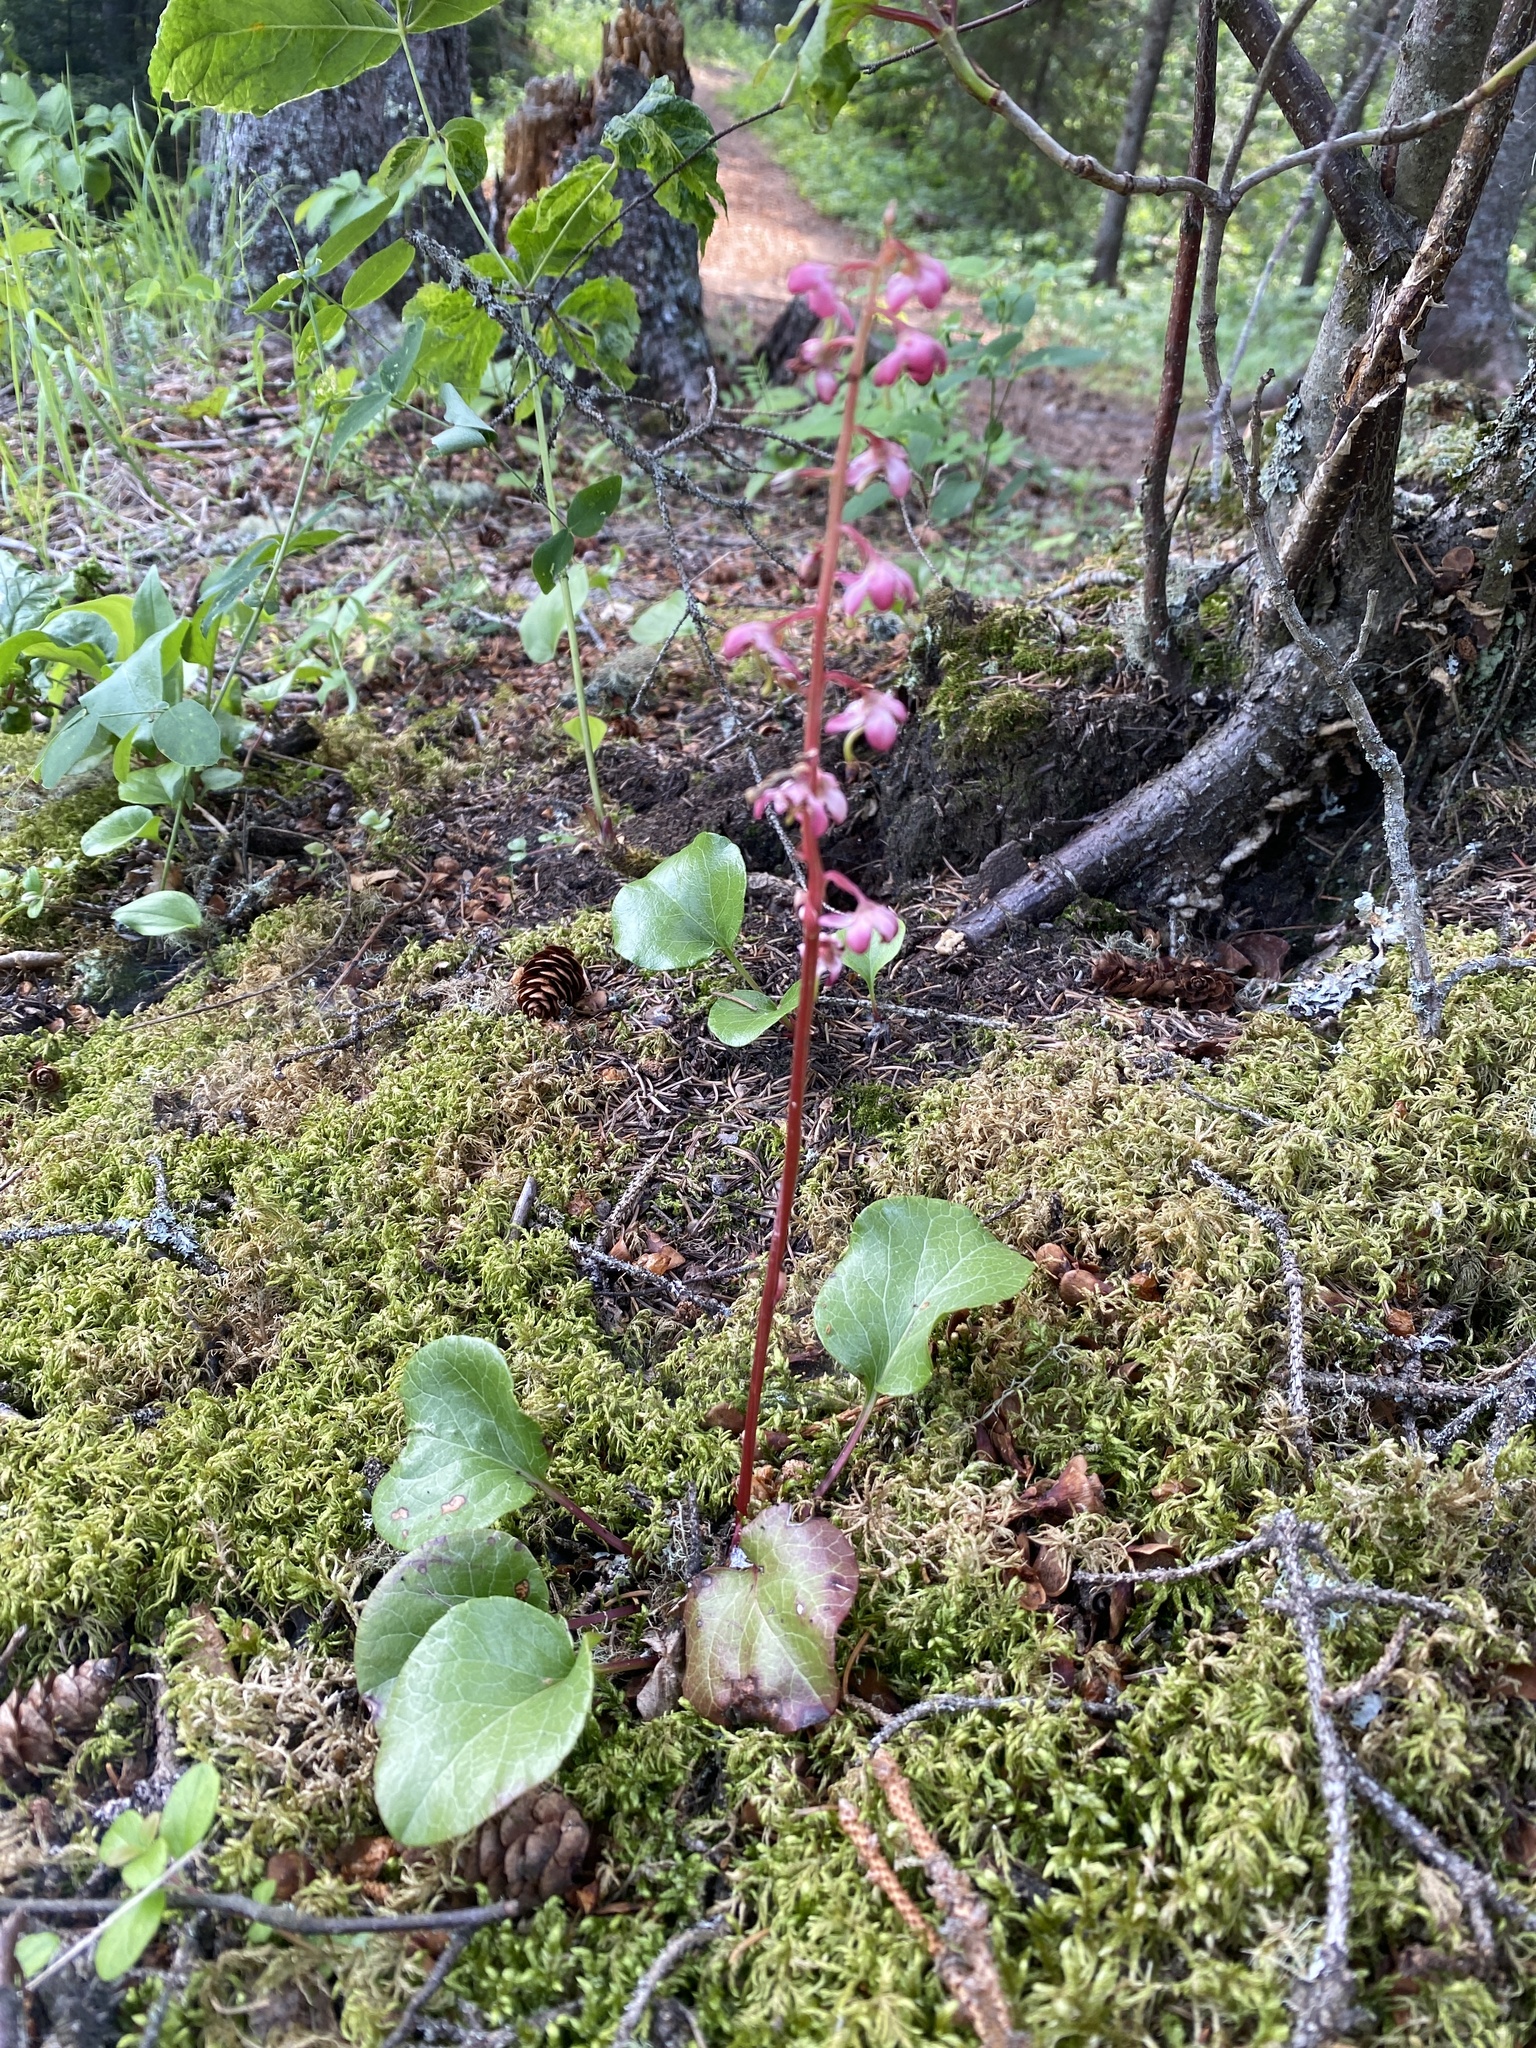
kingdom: Plantae
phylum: Tracheophyta
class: Magnoliopsida
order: Ericales
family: Ericaceae
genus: Pyrola
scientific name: Pyrola asarifolia
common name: Bog wintergreen
